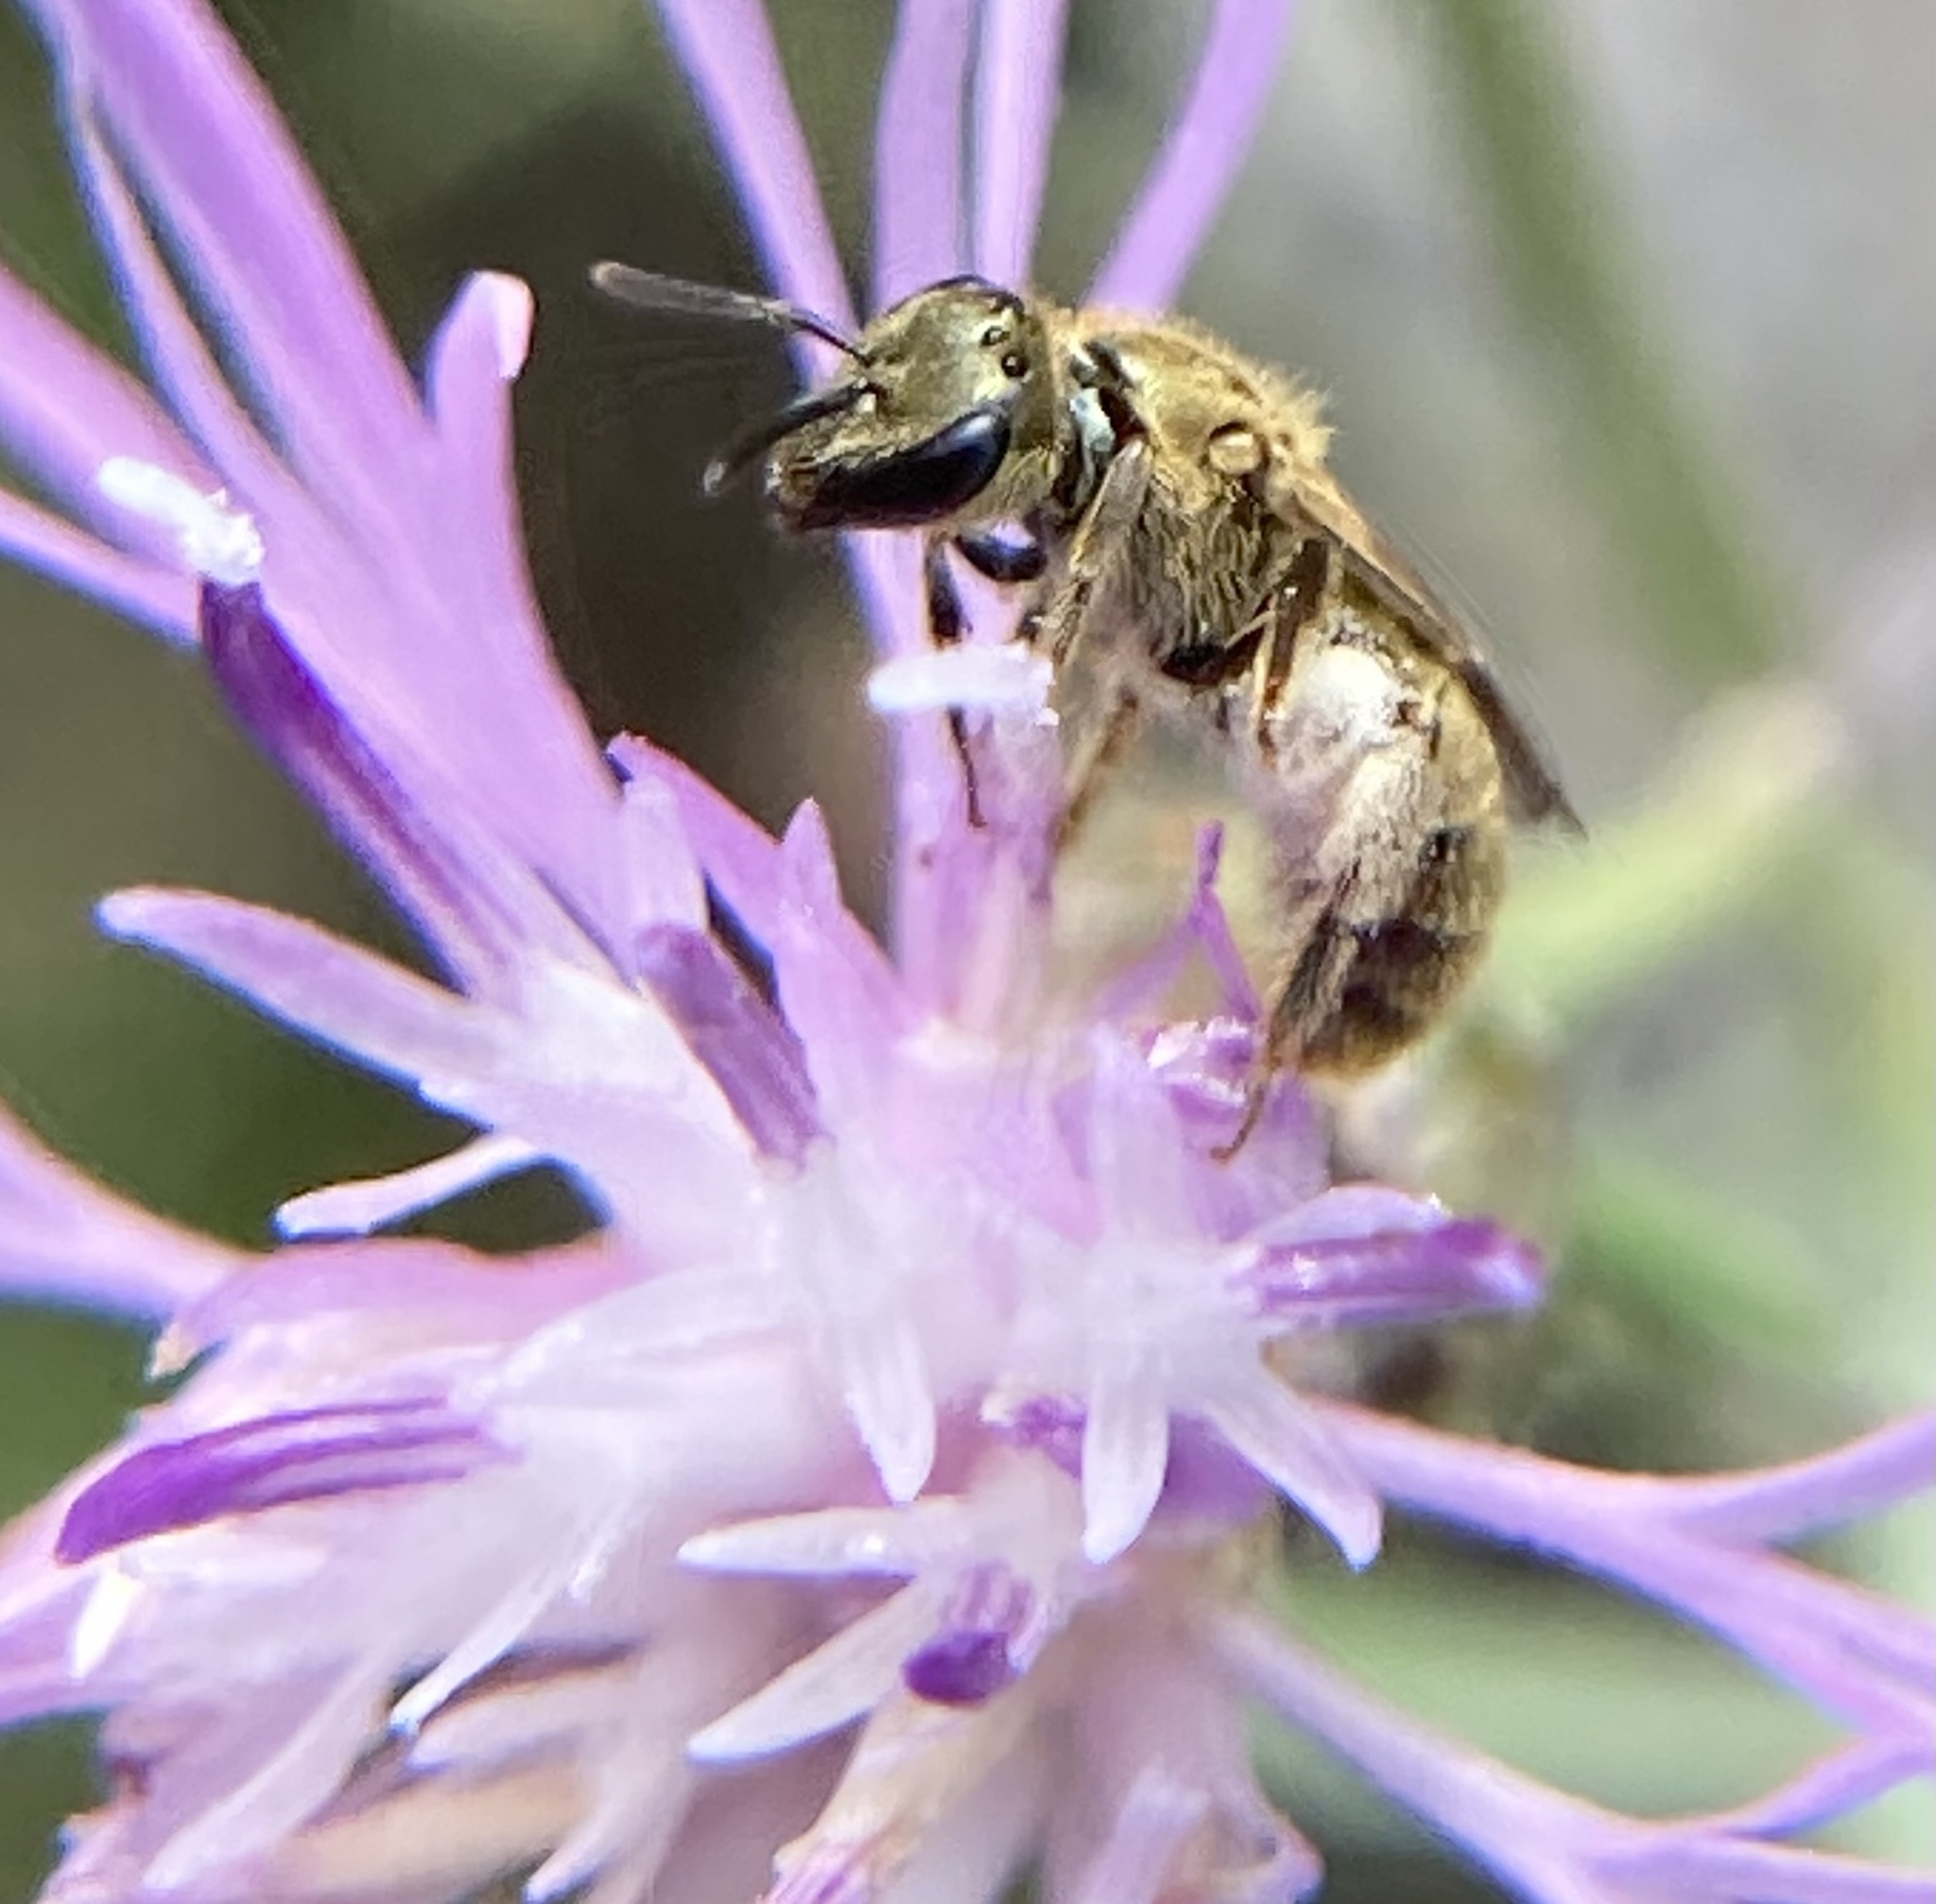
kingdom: Animalia
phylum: Arthropoda
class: Insecta
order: Hymenoptera
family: Halictidae
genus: Lasioglossum
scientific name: Lasioglossum
